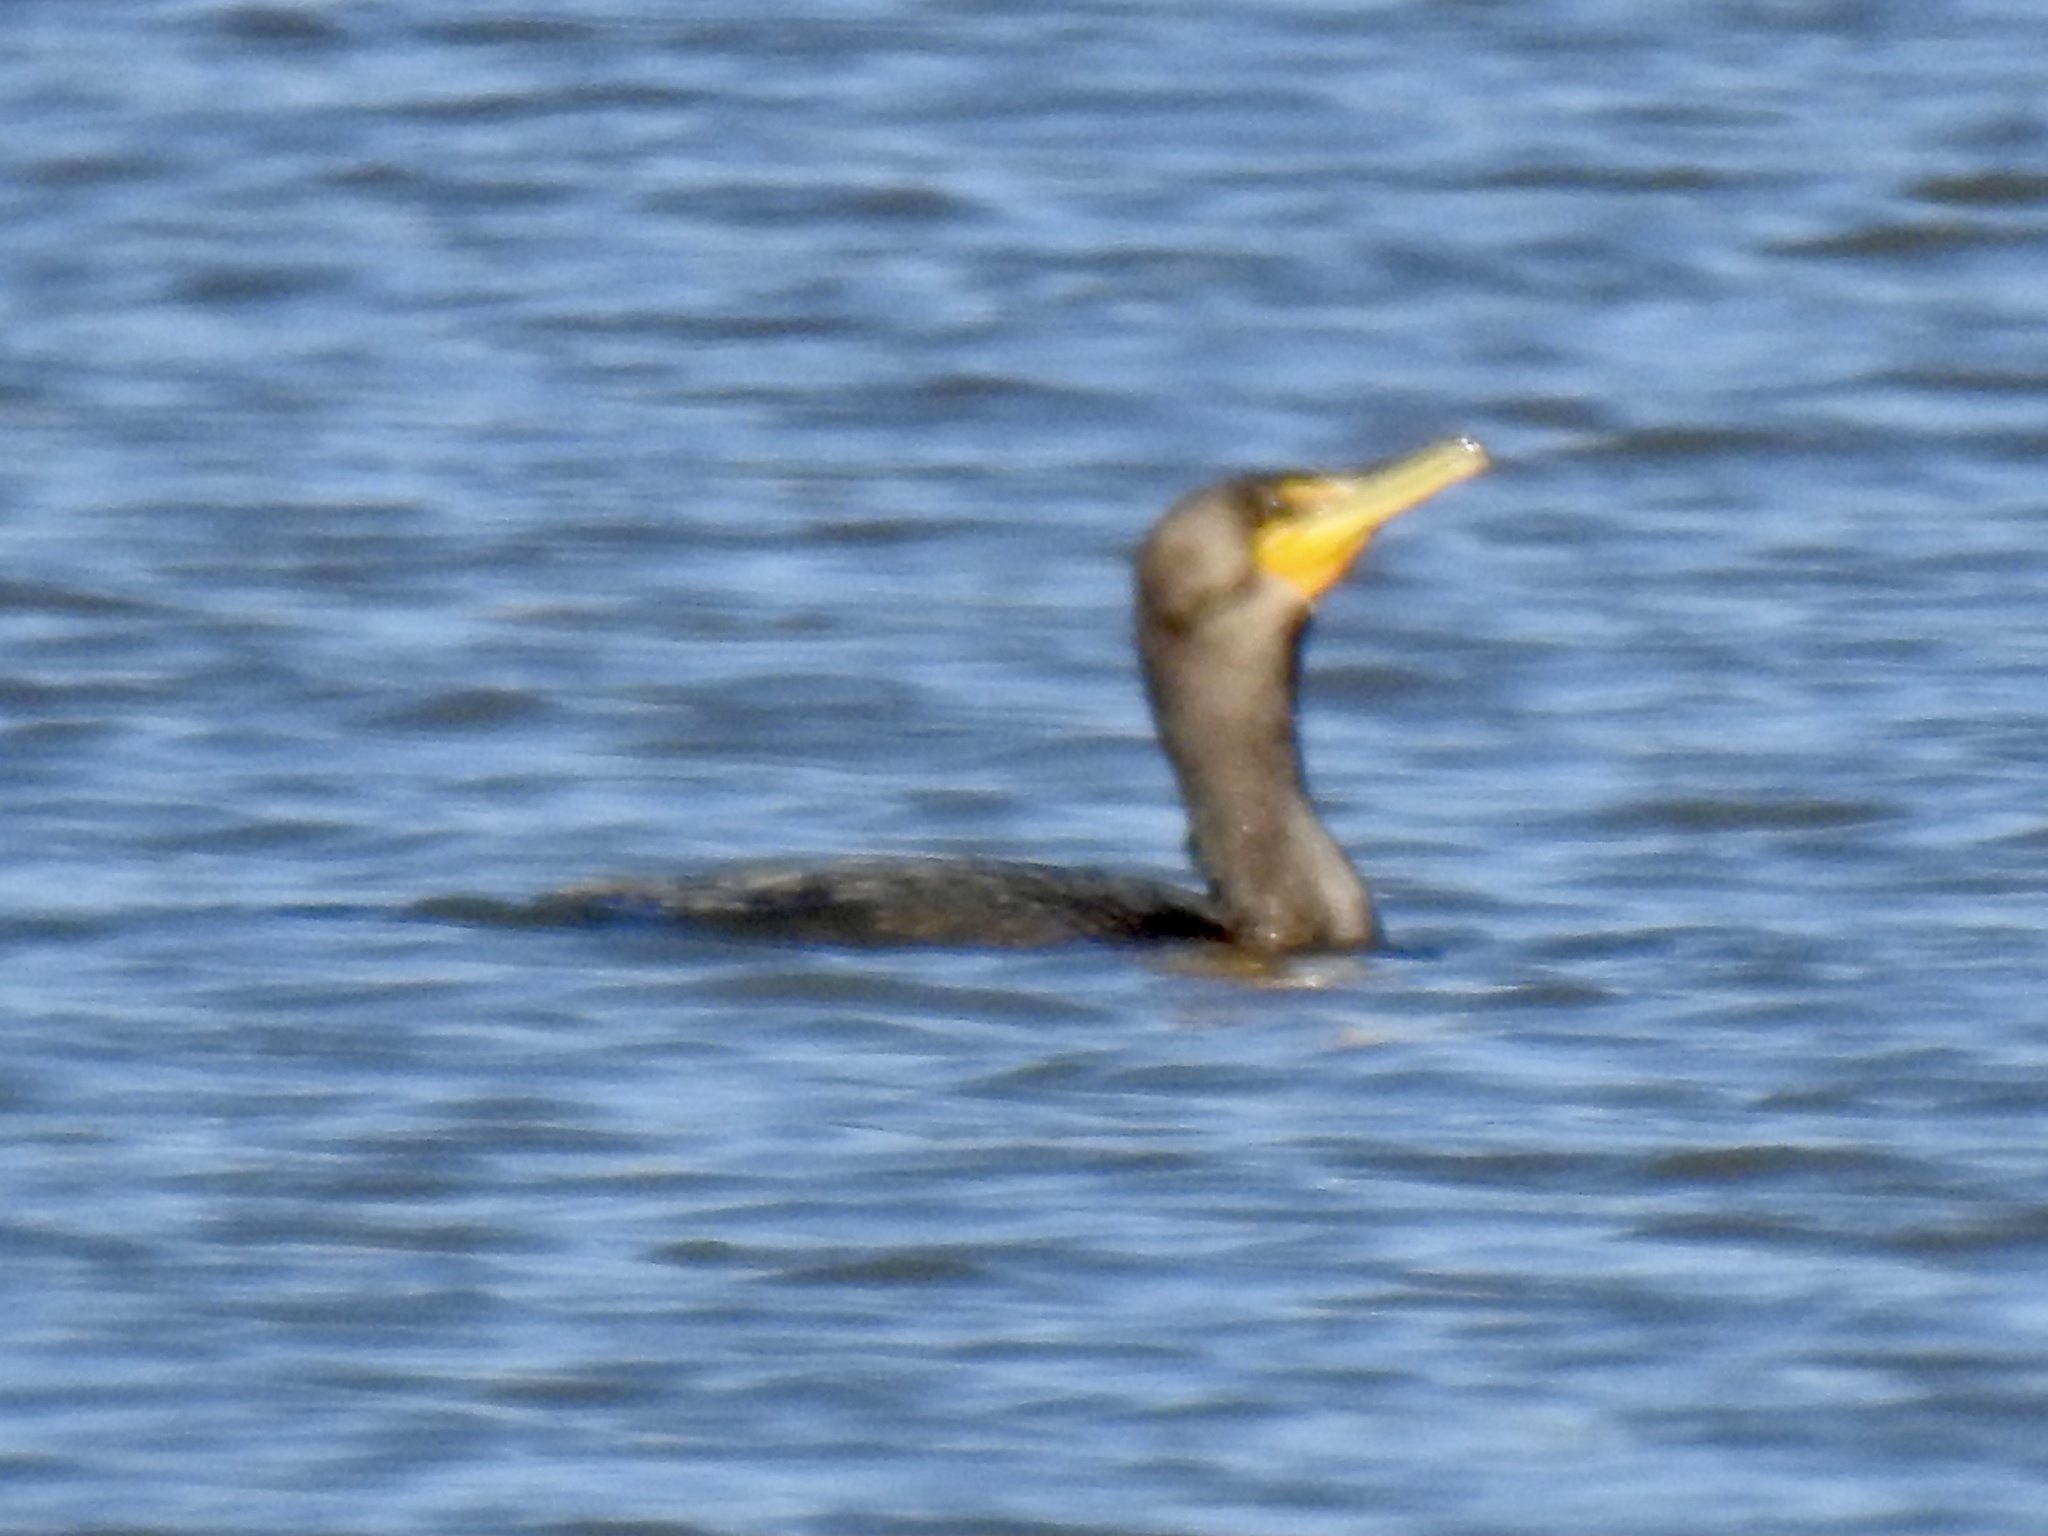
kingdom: Animalia
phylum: Chordata
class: Aves
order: Suliformes
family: Phalacrocoracidae
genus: Phalacrocorax
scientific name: Phalacrocorax auritus
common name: Double-crested cormorant
